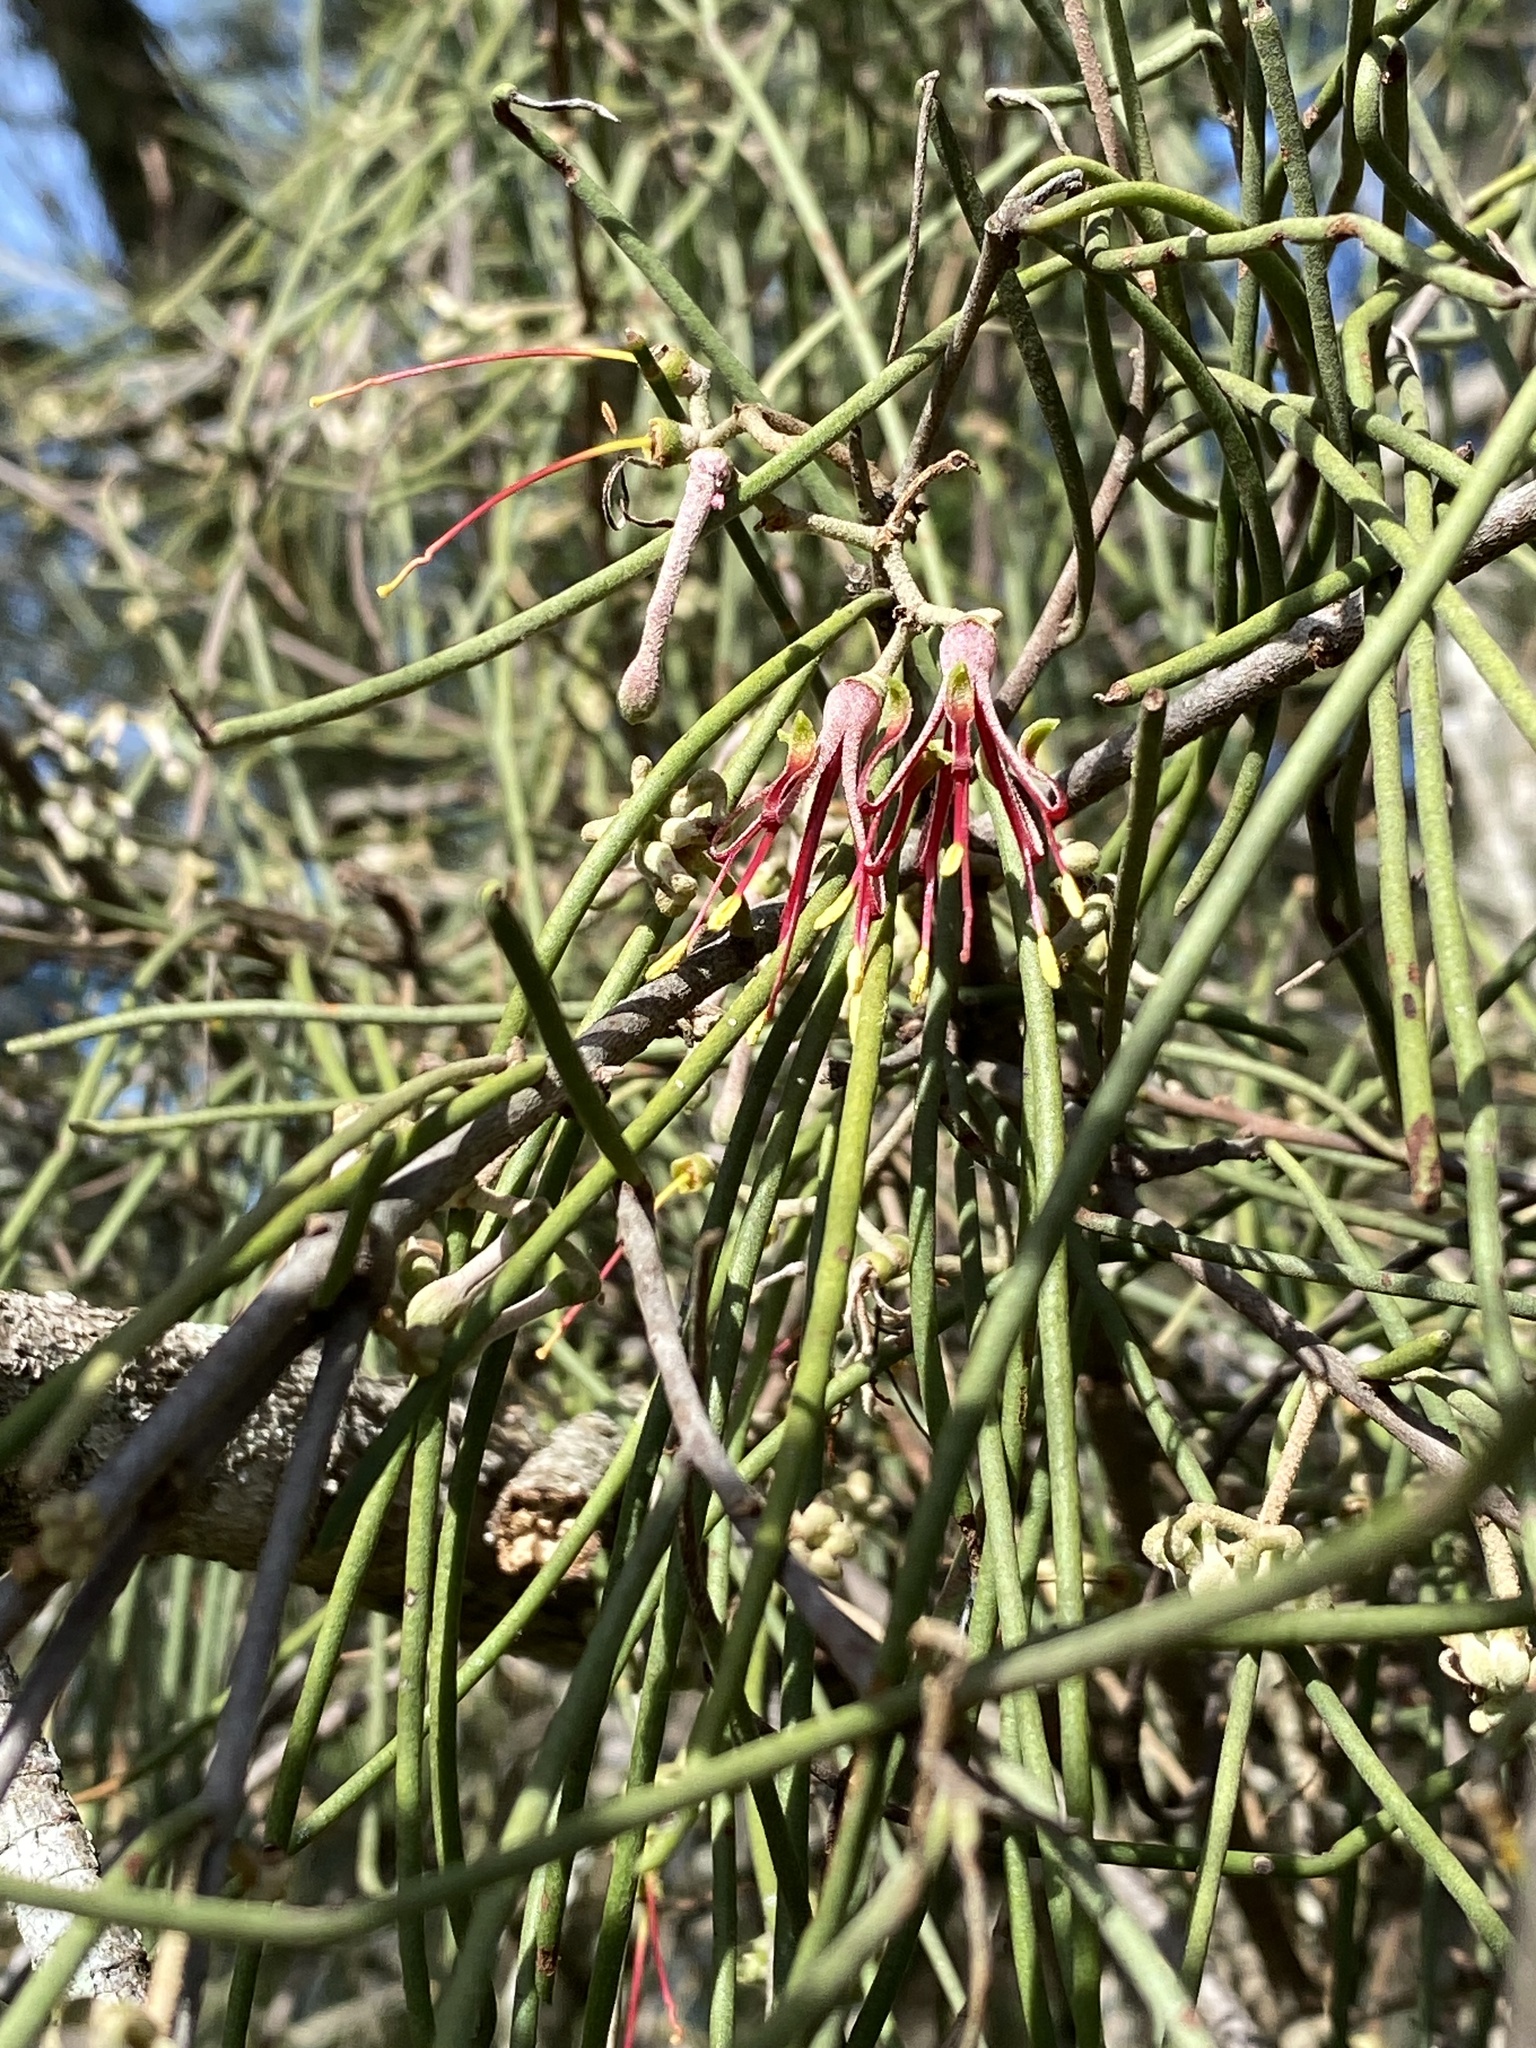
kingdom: Plantae
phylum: Tracheophyta
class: Magnoliopsida
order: Santalales
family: Loranthaceae
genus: Amyema
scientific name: Amyema cambagei
